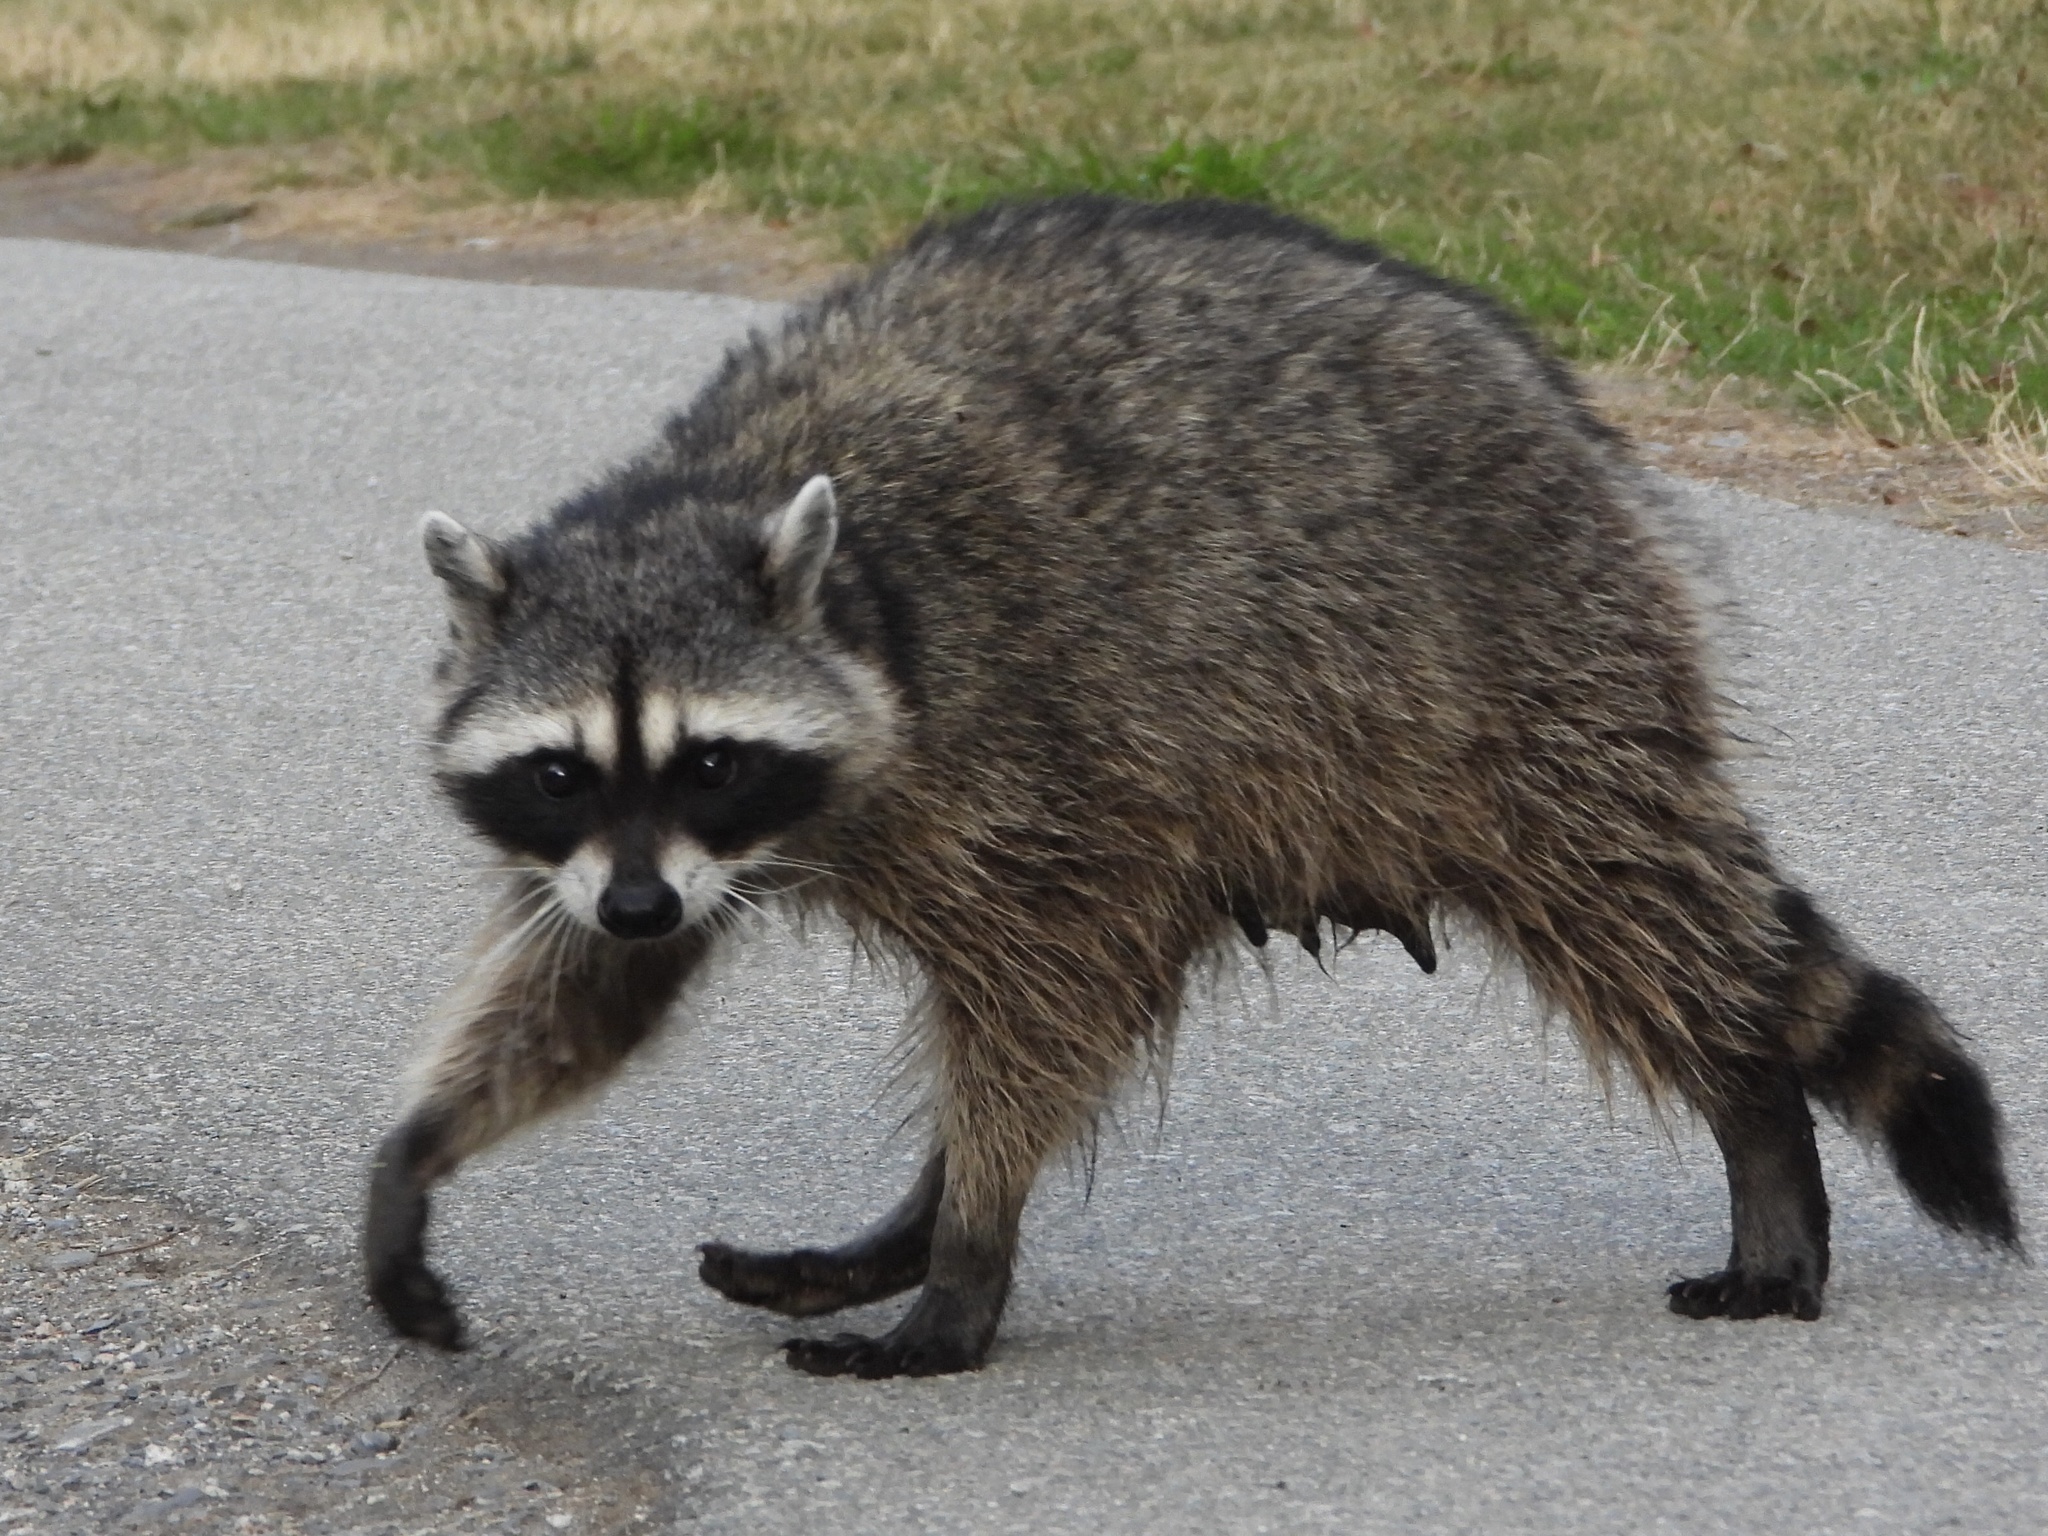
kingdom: Animalia
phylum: Chordata
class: Mammalia
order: Carnivora
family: Procyonidae
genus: Procyon
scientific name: Procyon lotor
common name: Raccoon
